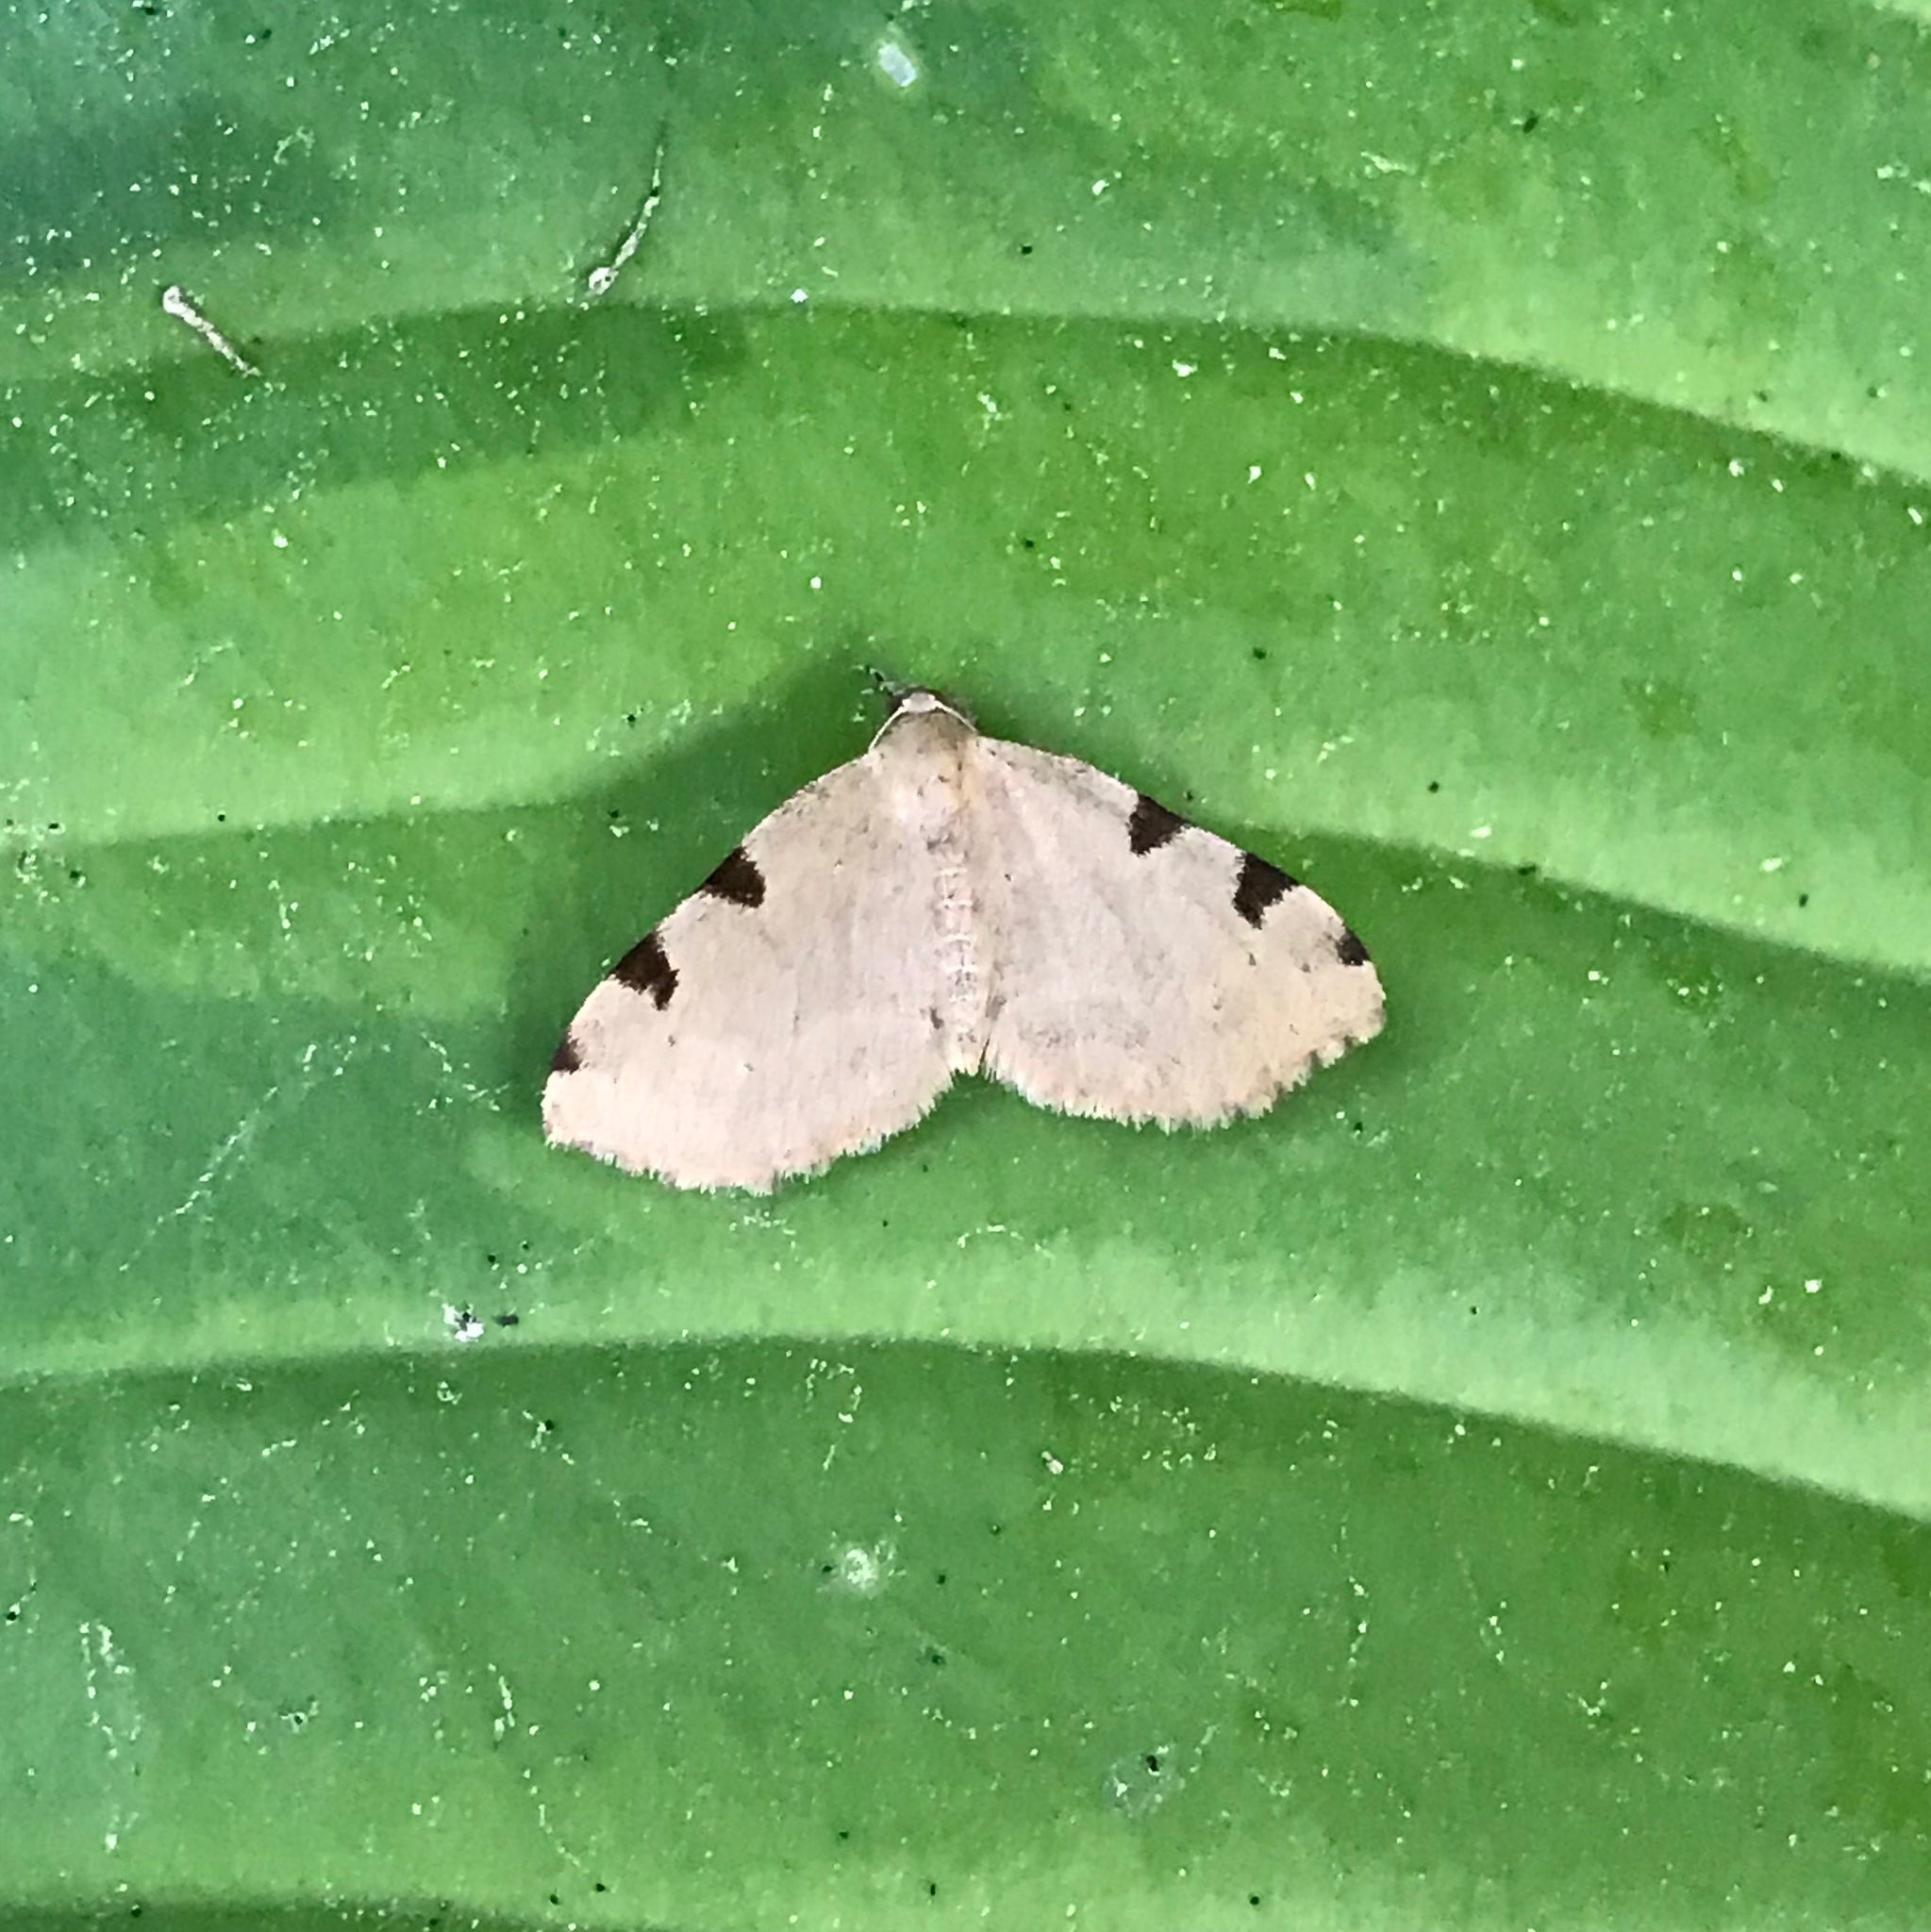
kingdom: Animalia
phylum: Arthropoda
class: Insecta
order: Lepidoptera
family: Geometridae
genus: Heterophleps
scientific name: Heterophleps triguttaria
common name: Three-spotted fillip
